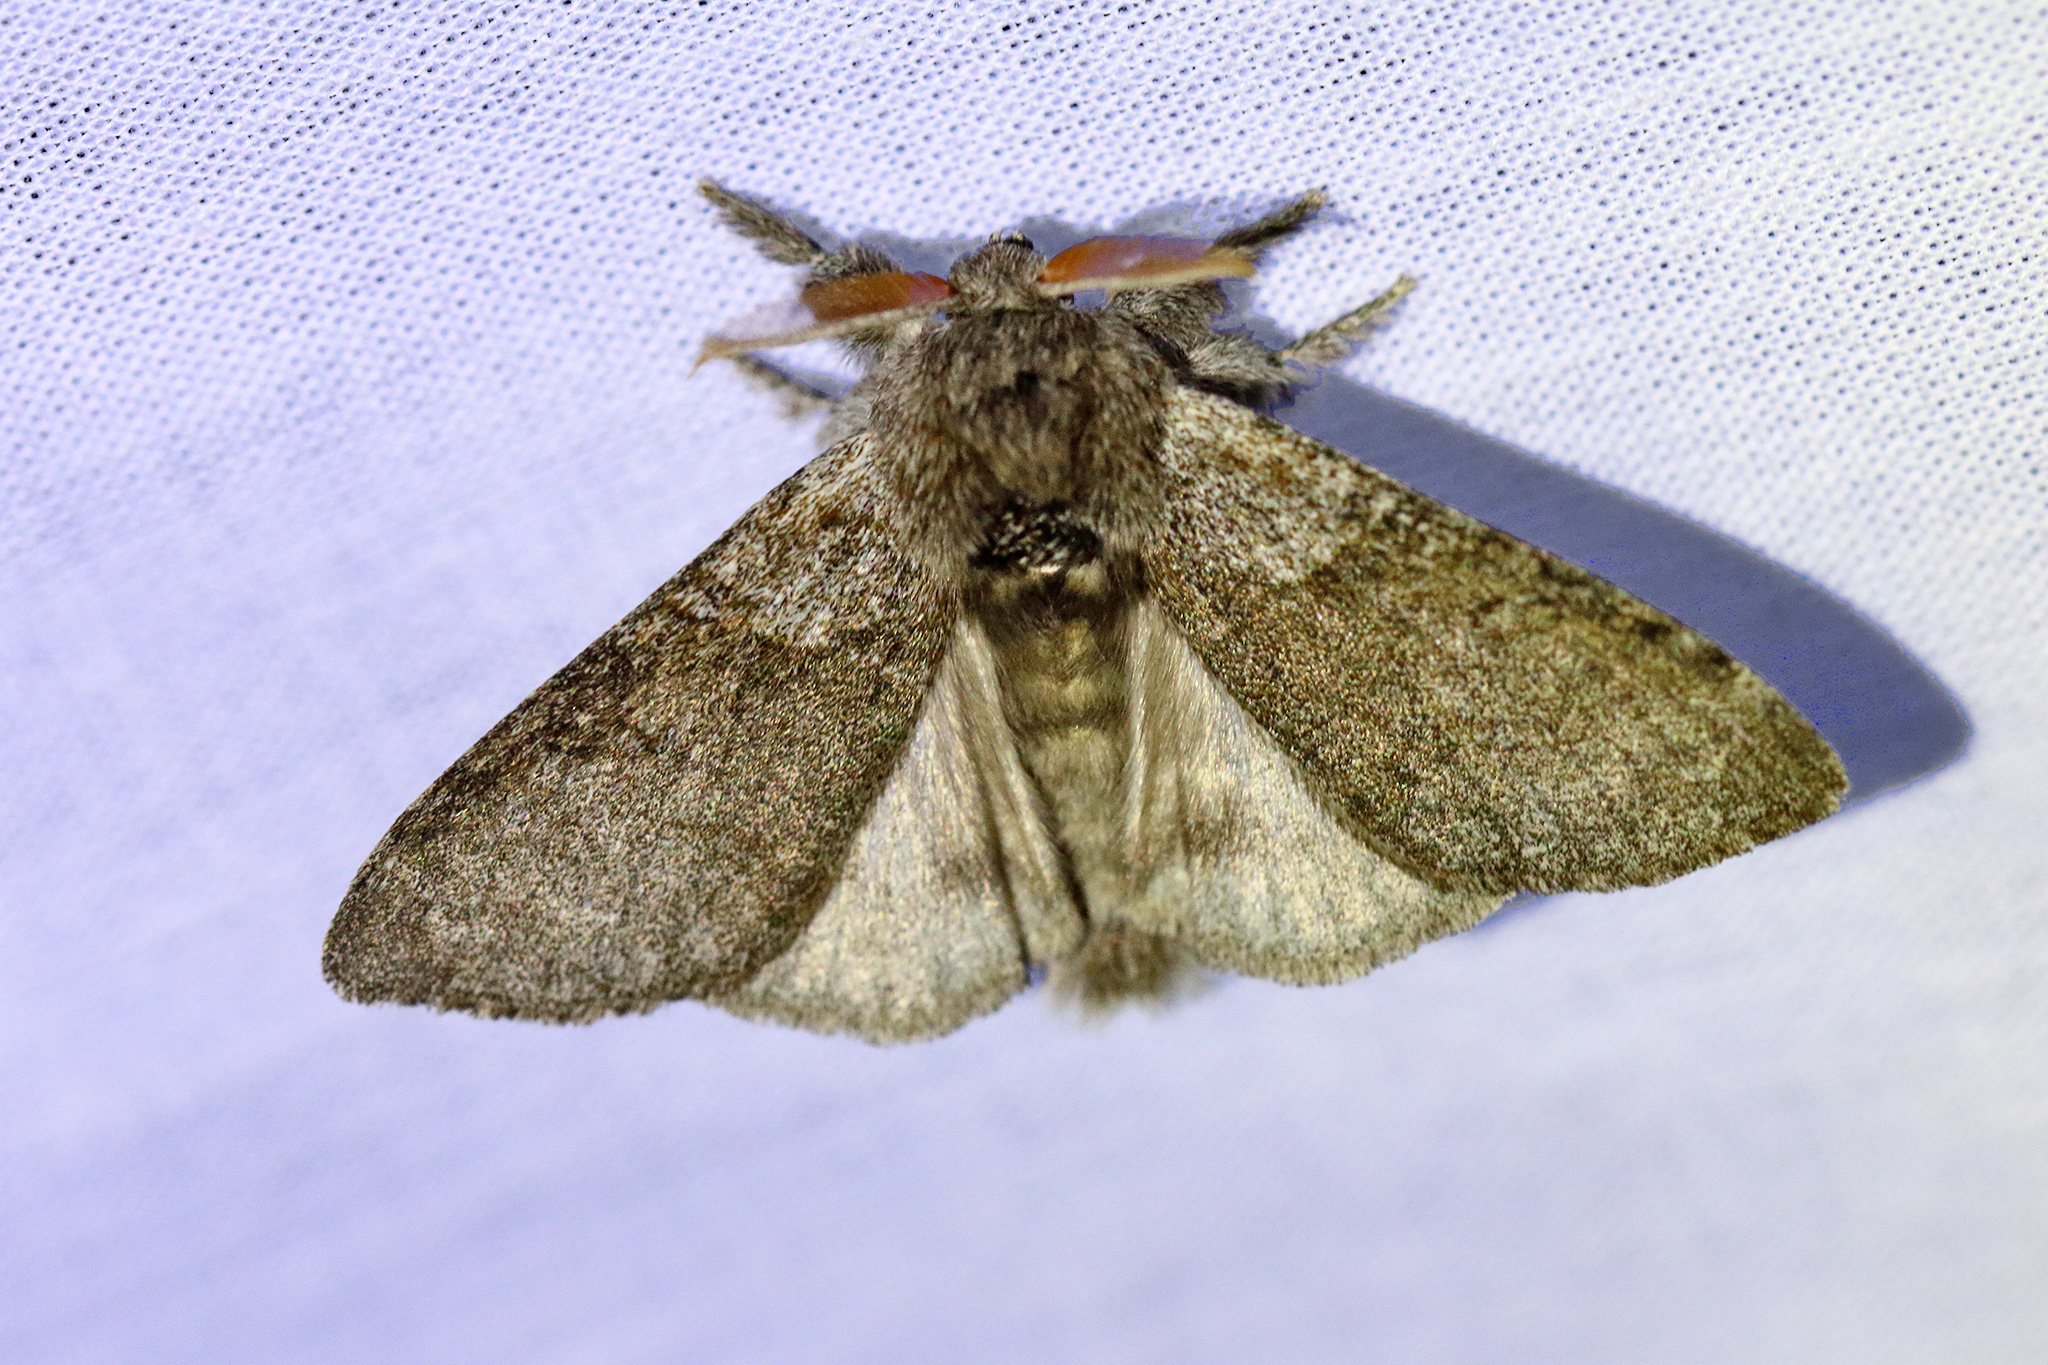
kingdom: Animalia
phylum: Arthropoda
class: Insecta
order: Lepidoptera
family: Erebidae
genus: Calliteara
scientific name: Calliteara pudibunda
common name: Pale tussock
